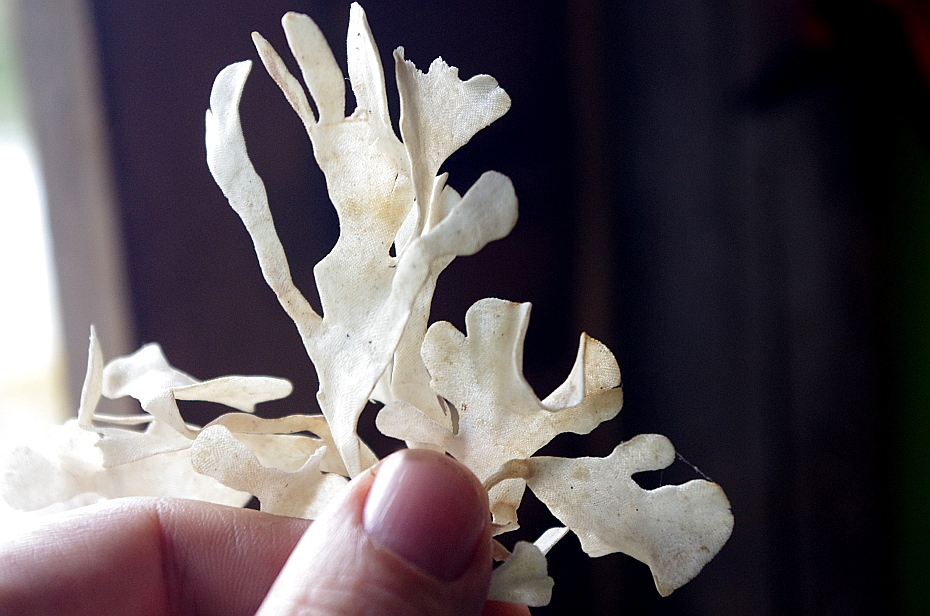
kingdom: Animalia
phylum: Bryozoa
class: Gymnolaemata
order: Cheilostomatida
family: Flustridae
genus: Flustra
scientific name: Flustra foliacea
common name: Hornwrack
